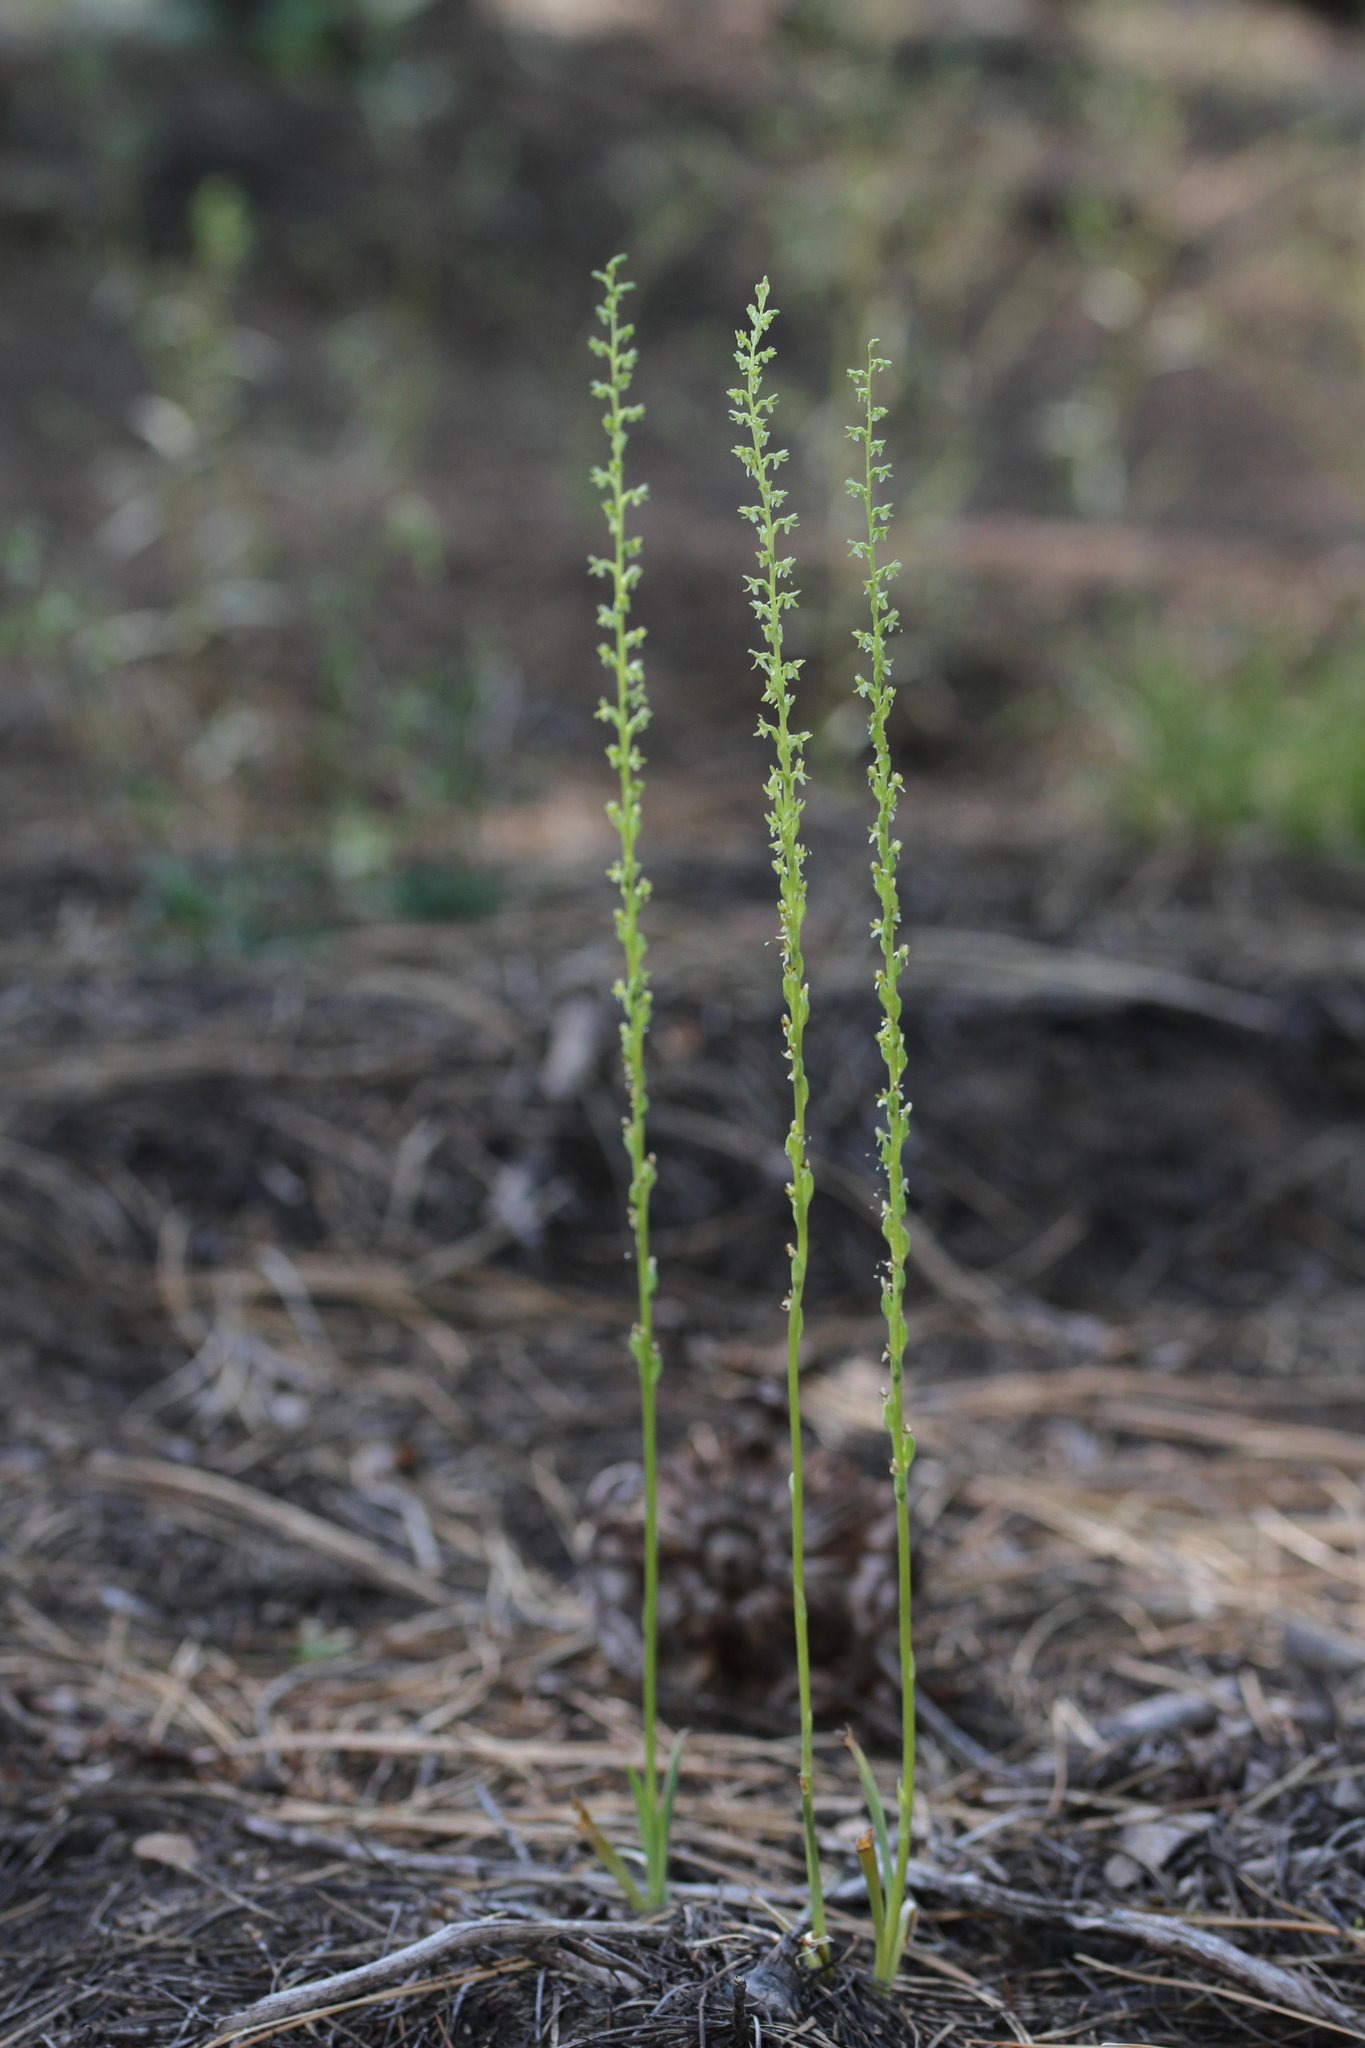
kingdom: Plantae
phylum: Tracheophyta
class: Liliopsida
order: Asparagales
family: Orchidaceae
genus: Platanthera
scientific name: Platanthera unalascensis
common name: Alaska bog orchid
